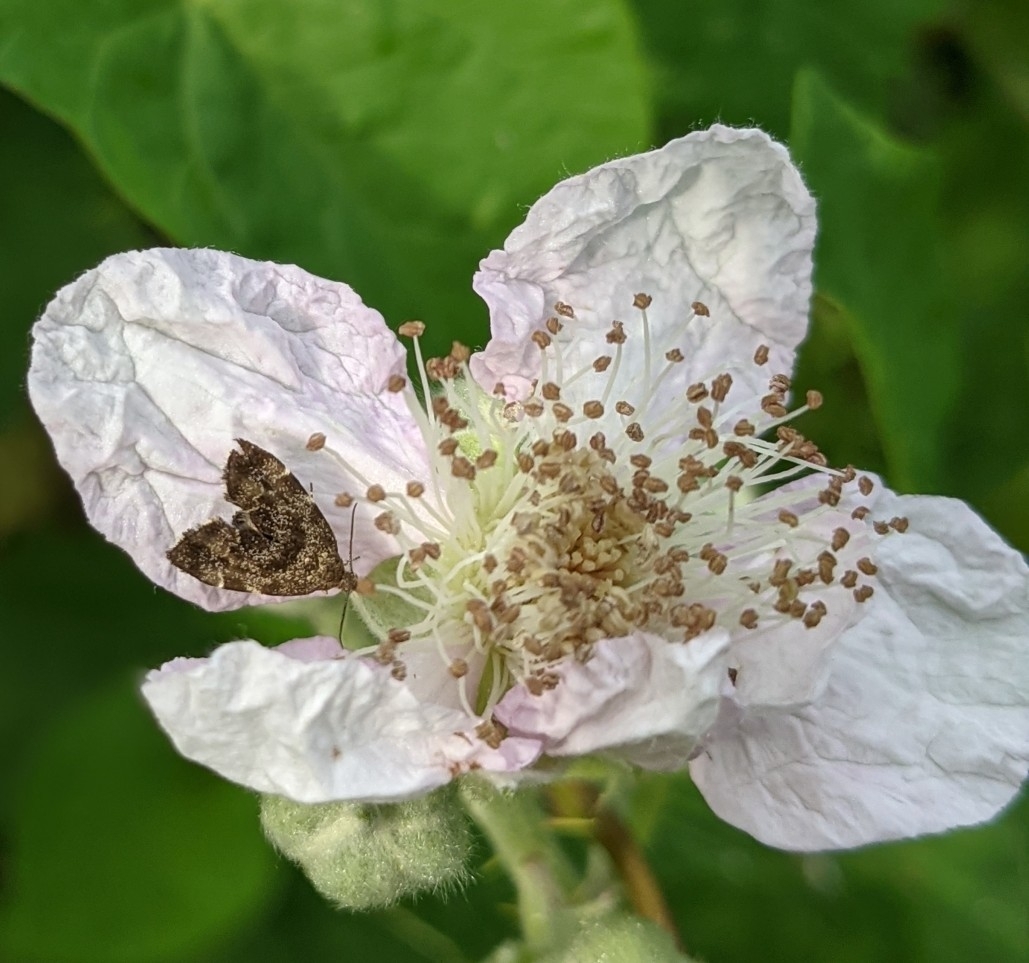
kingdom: Animalia
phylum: Arthropoda
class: Insecta
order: Lepidoptera
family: Choreutidae
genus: Anthophila
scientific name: Anthophila fabriciana
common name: Nettle-tap
